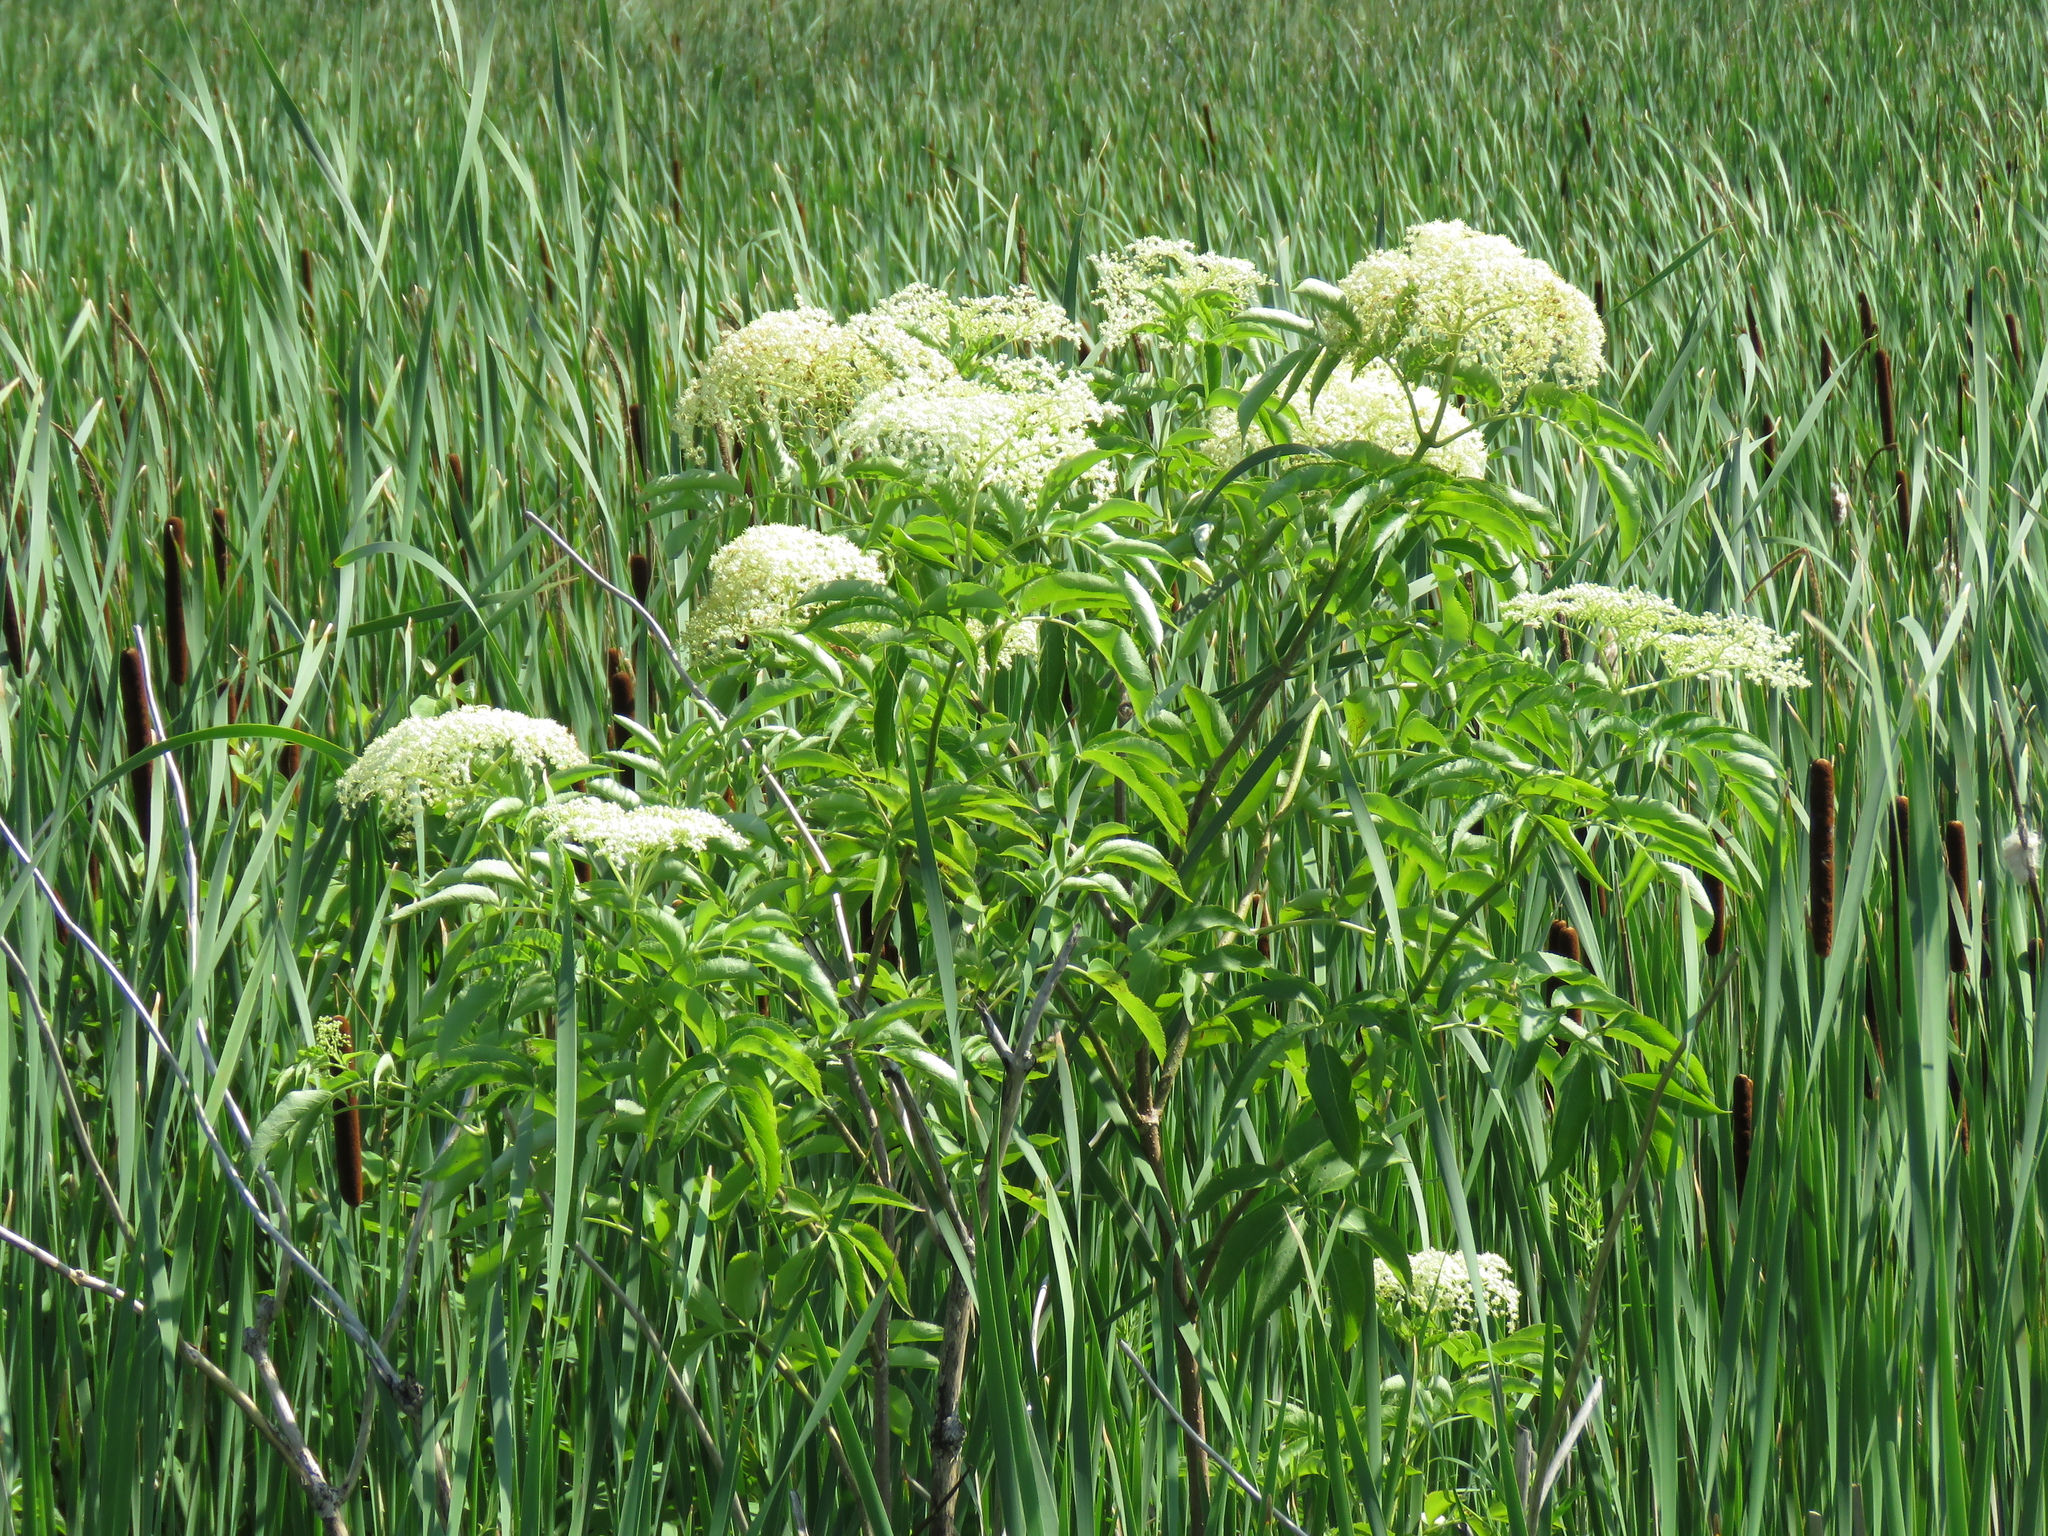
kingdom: Plantae
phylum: Tracheophyta
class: Magnoliopsida
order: Dipsacales
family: Viburnaceae
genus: Sambucus
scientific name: Sambucus canadensis
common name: American elder
